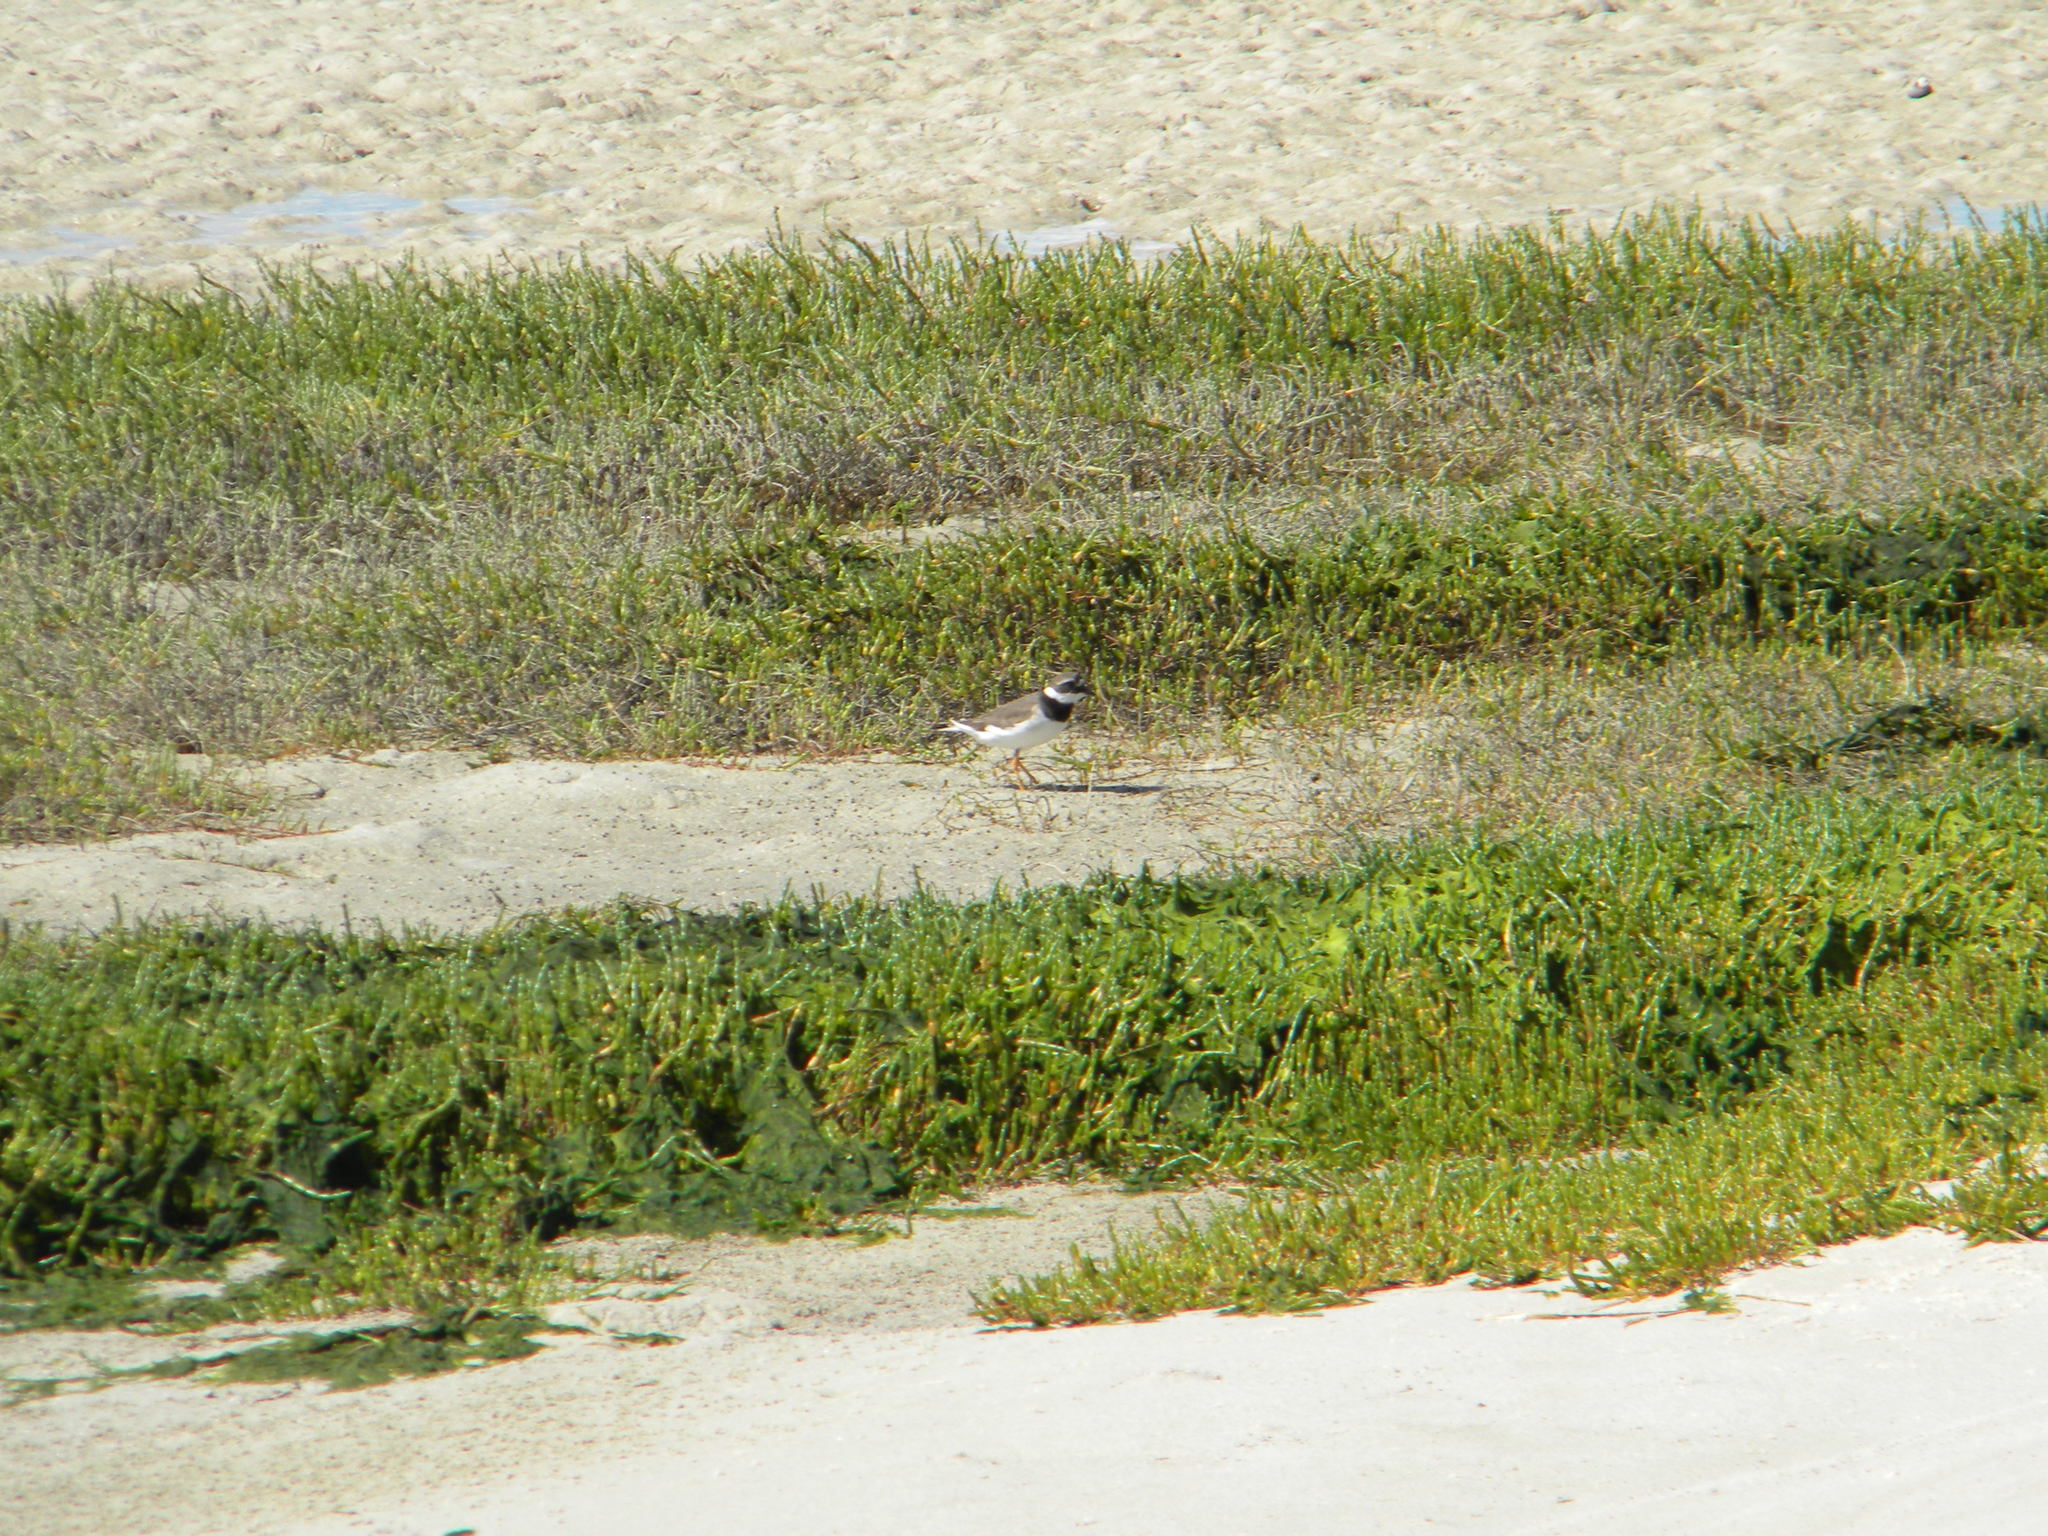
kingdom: Animalia
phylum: Chordata
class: Aves
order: Charadriiformes
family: Charadriidae
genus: Charadrius
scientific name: Charadrius hiaticula
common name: Common ringed plover
